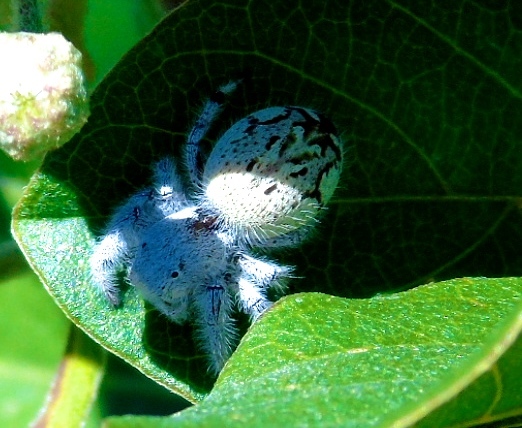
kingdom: Animalia
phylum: Arthropoda
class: Arachnida
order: Araneae
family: Salticidae
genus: Paraphidippus
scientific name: Paraphidippus fartilis
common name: Jumping spiders
